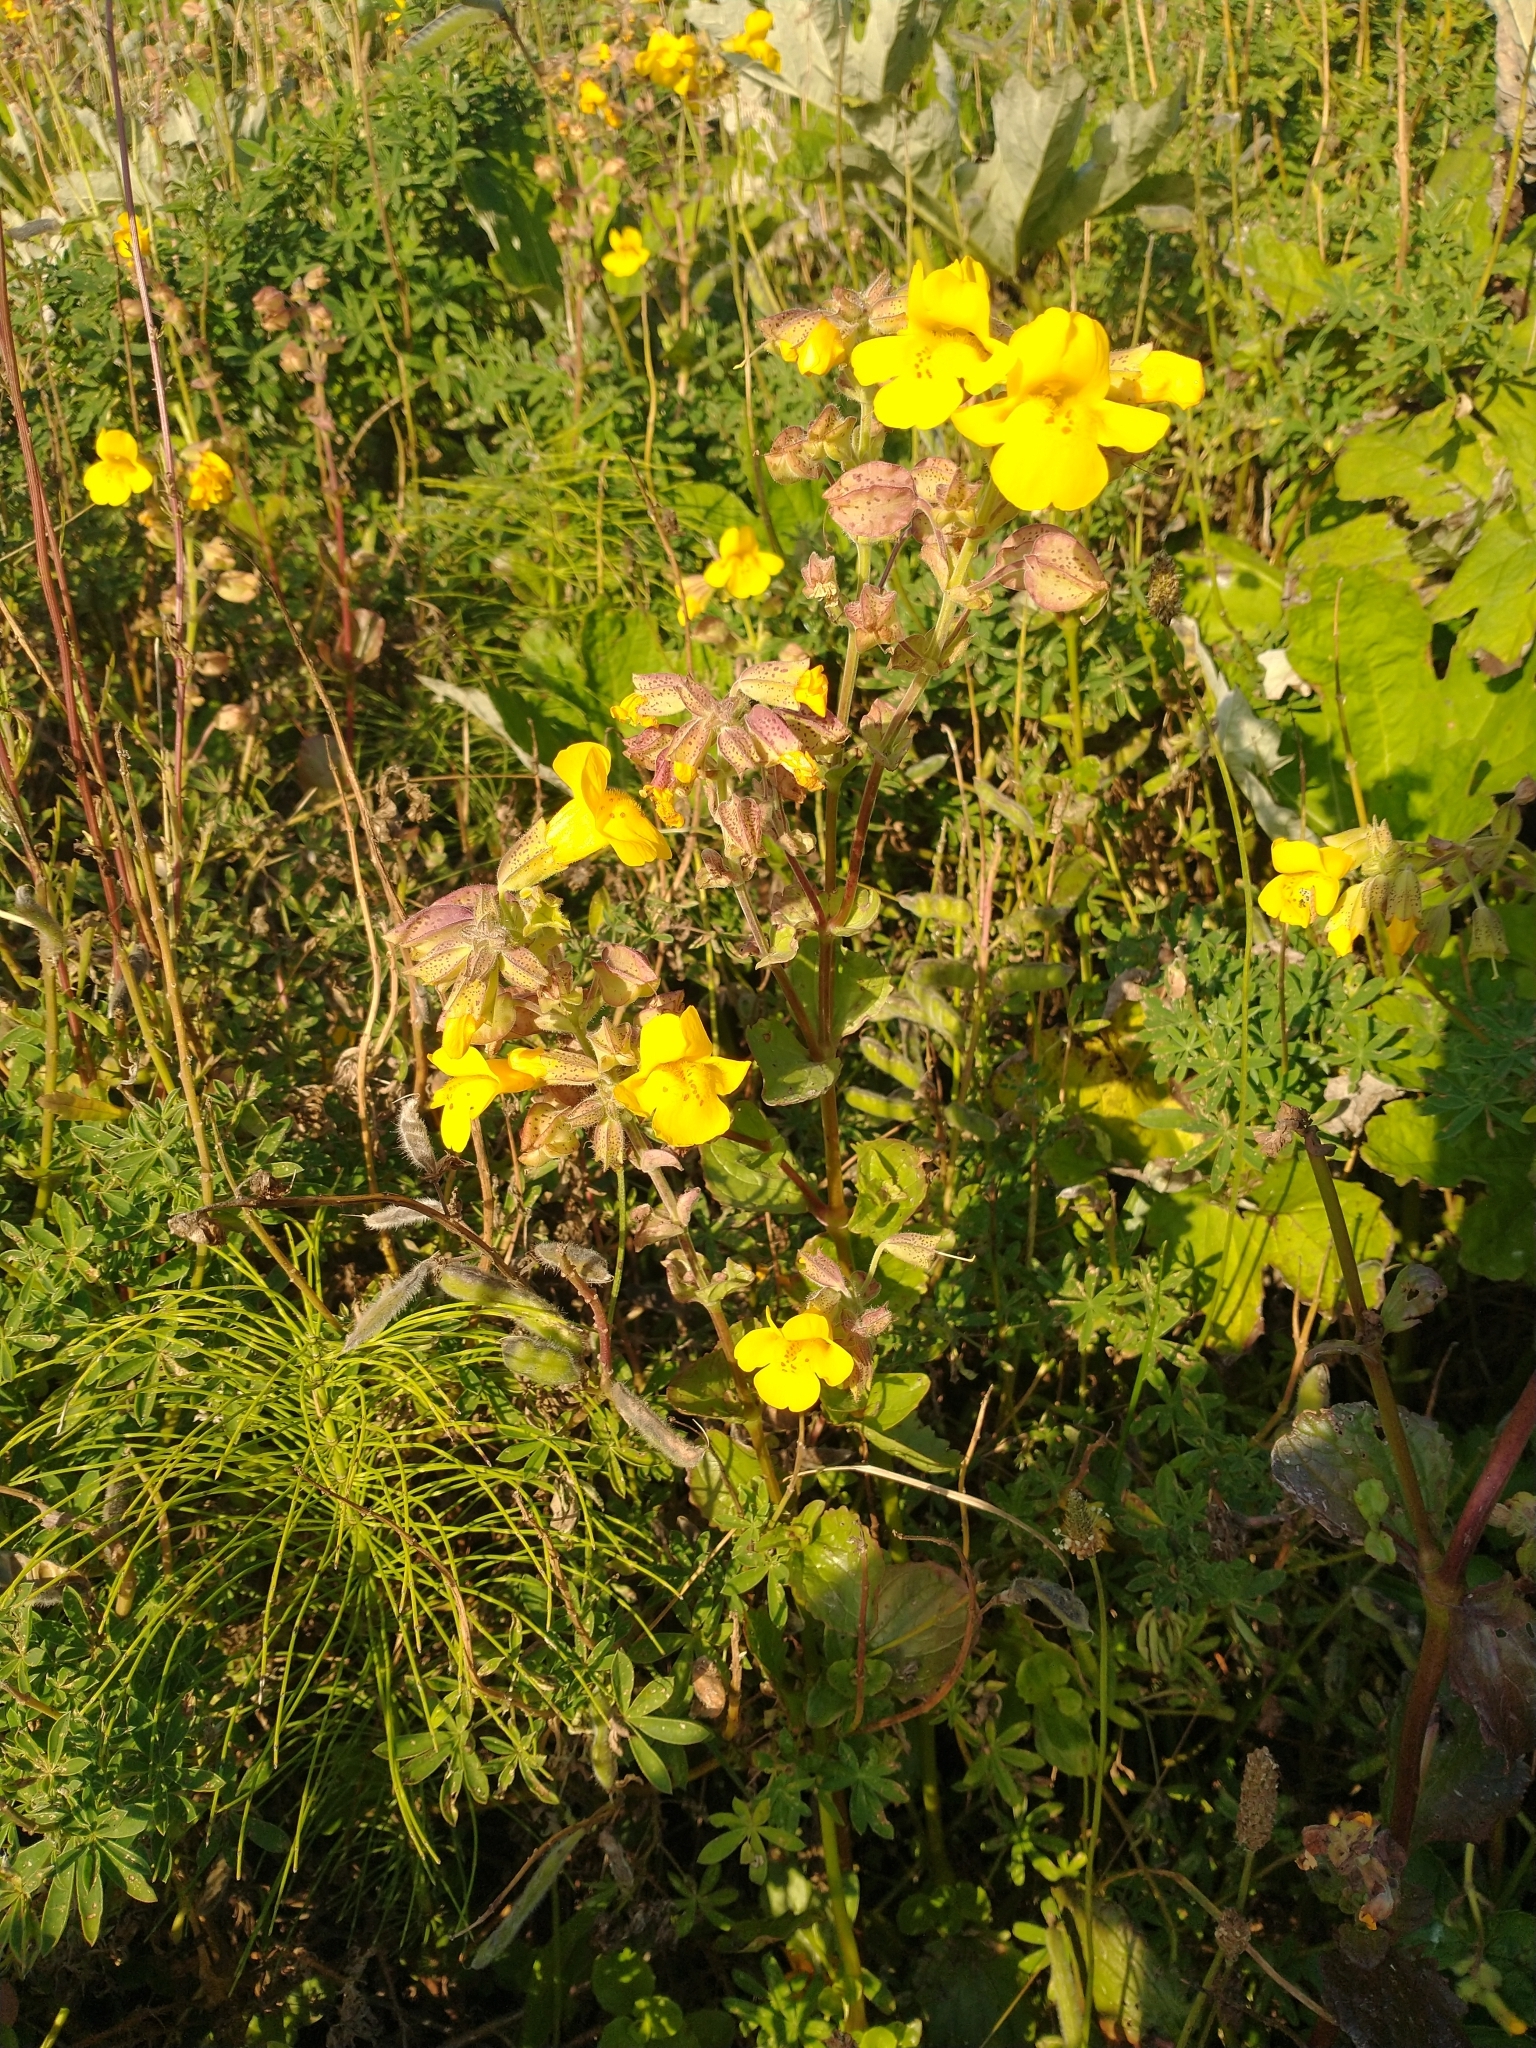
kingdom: Plantae
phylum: Tracheophyta
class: Magnoliopsida
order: Lamiales
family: Phrymaceae
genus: Erythranthe
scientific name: Erythranthe grandis
